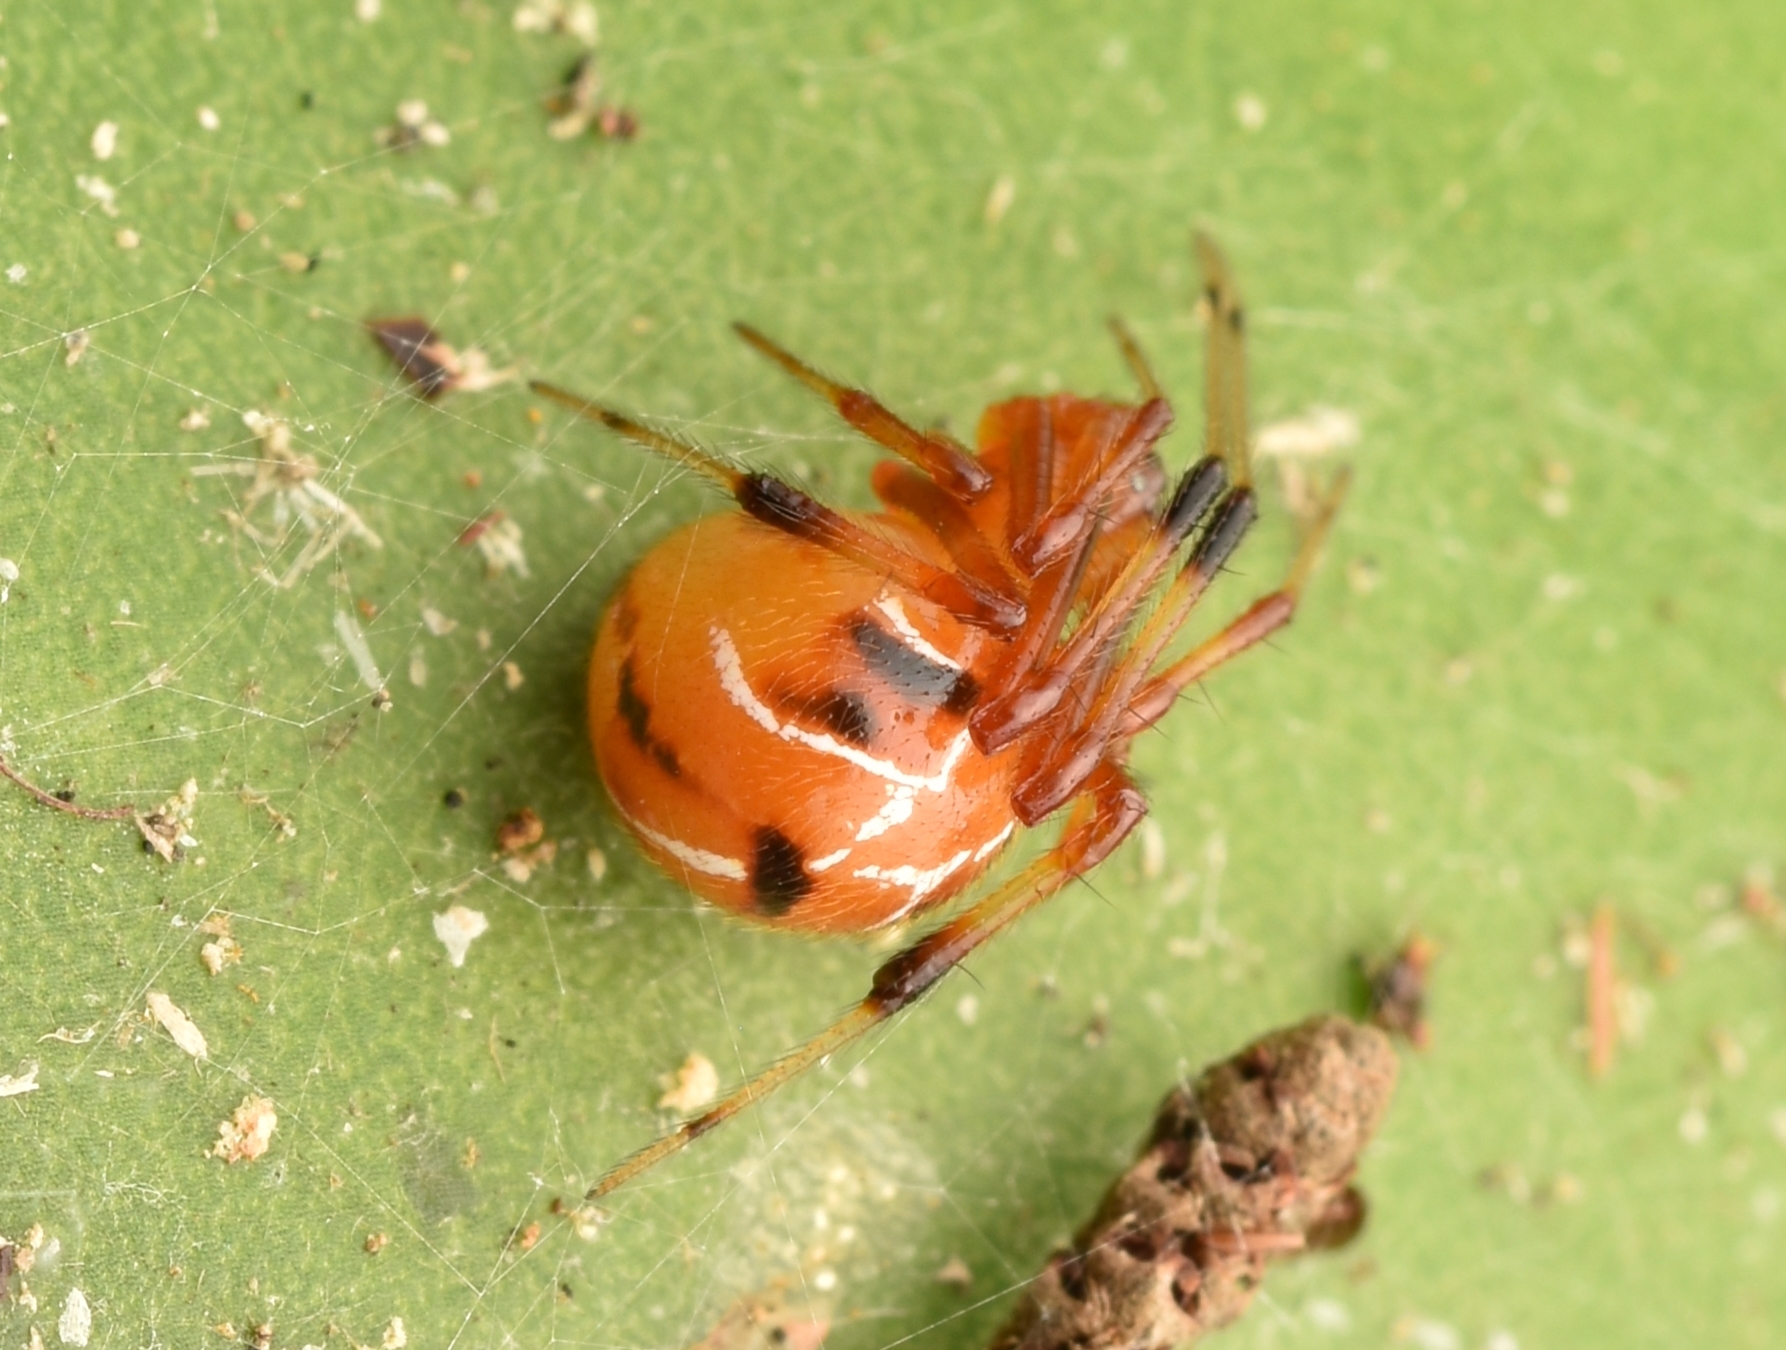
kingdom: Animalia
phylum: Arthropoda
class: Arachnida
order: Araneae
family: Theridiidae
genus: Nihonhimea
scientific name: Nihonhimea tesselata
